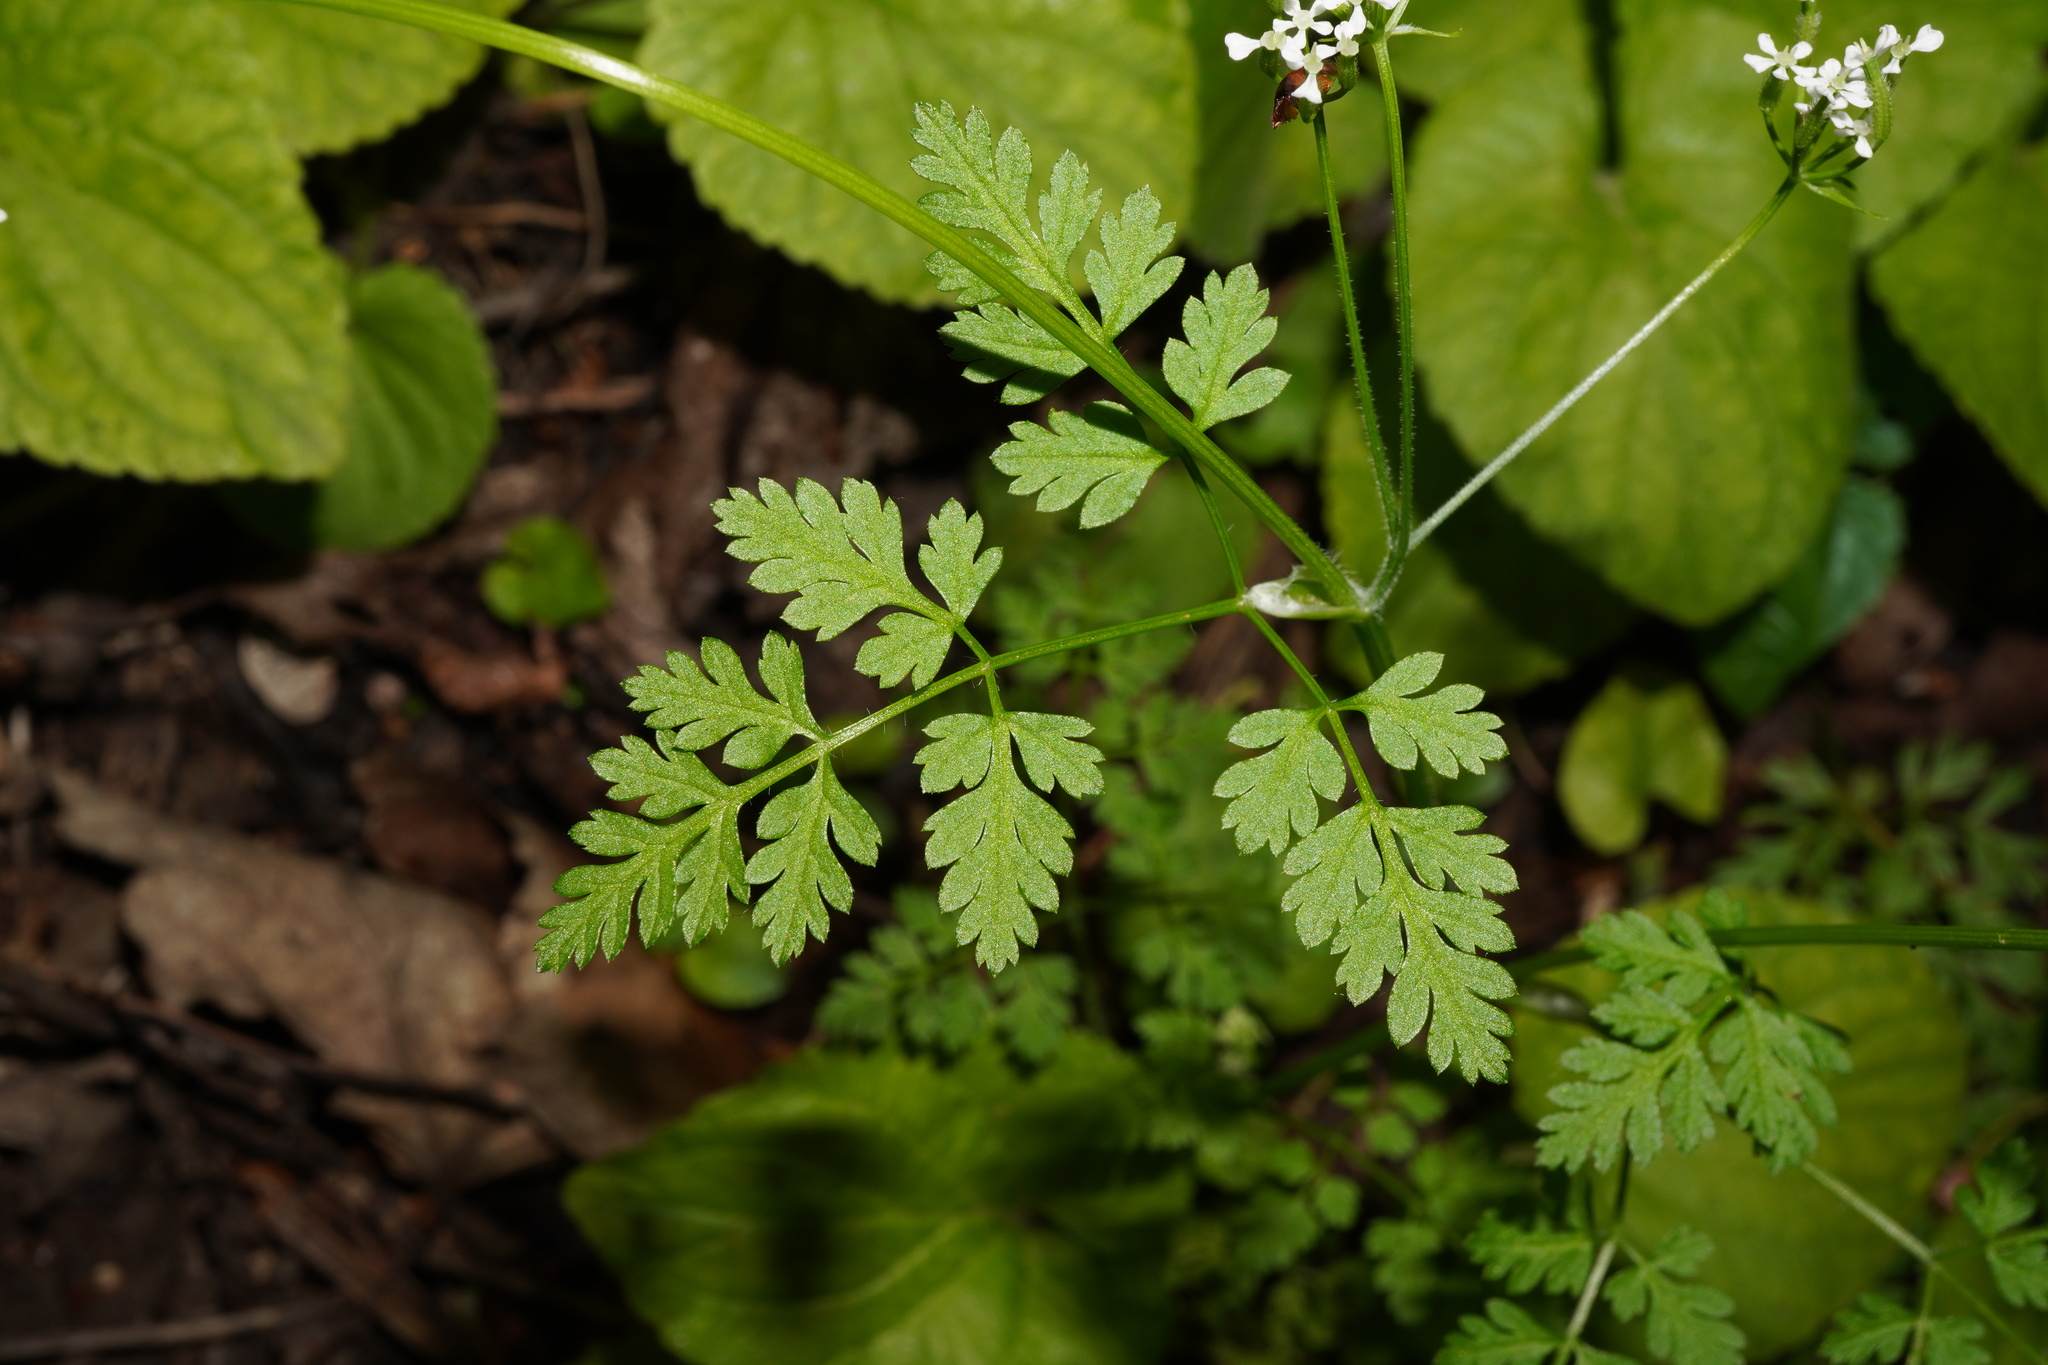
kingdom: Plantae
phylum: Tracheophyta
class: Magnoliopsida
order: Apiales
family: Apiaceae
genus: Anthriscus
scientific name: Anthriscus cerefolium
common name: Garden chervil
